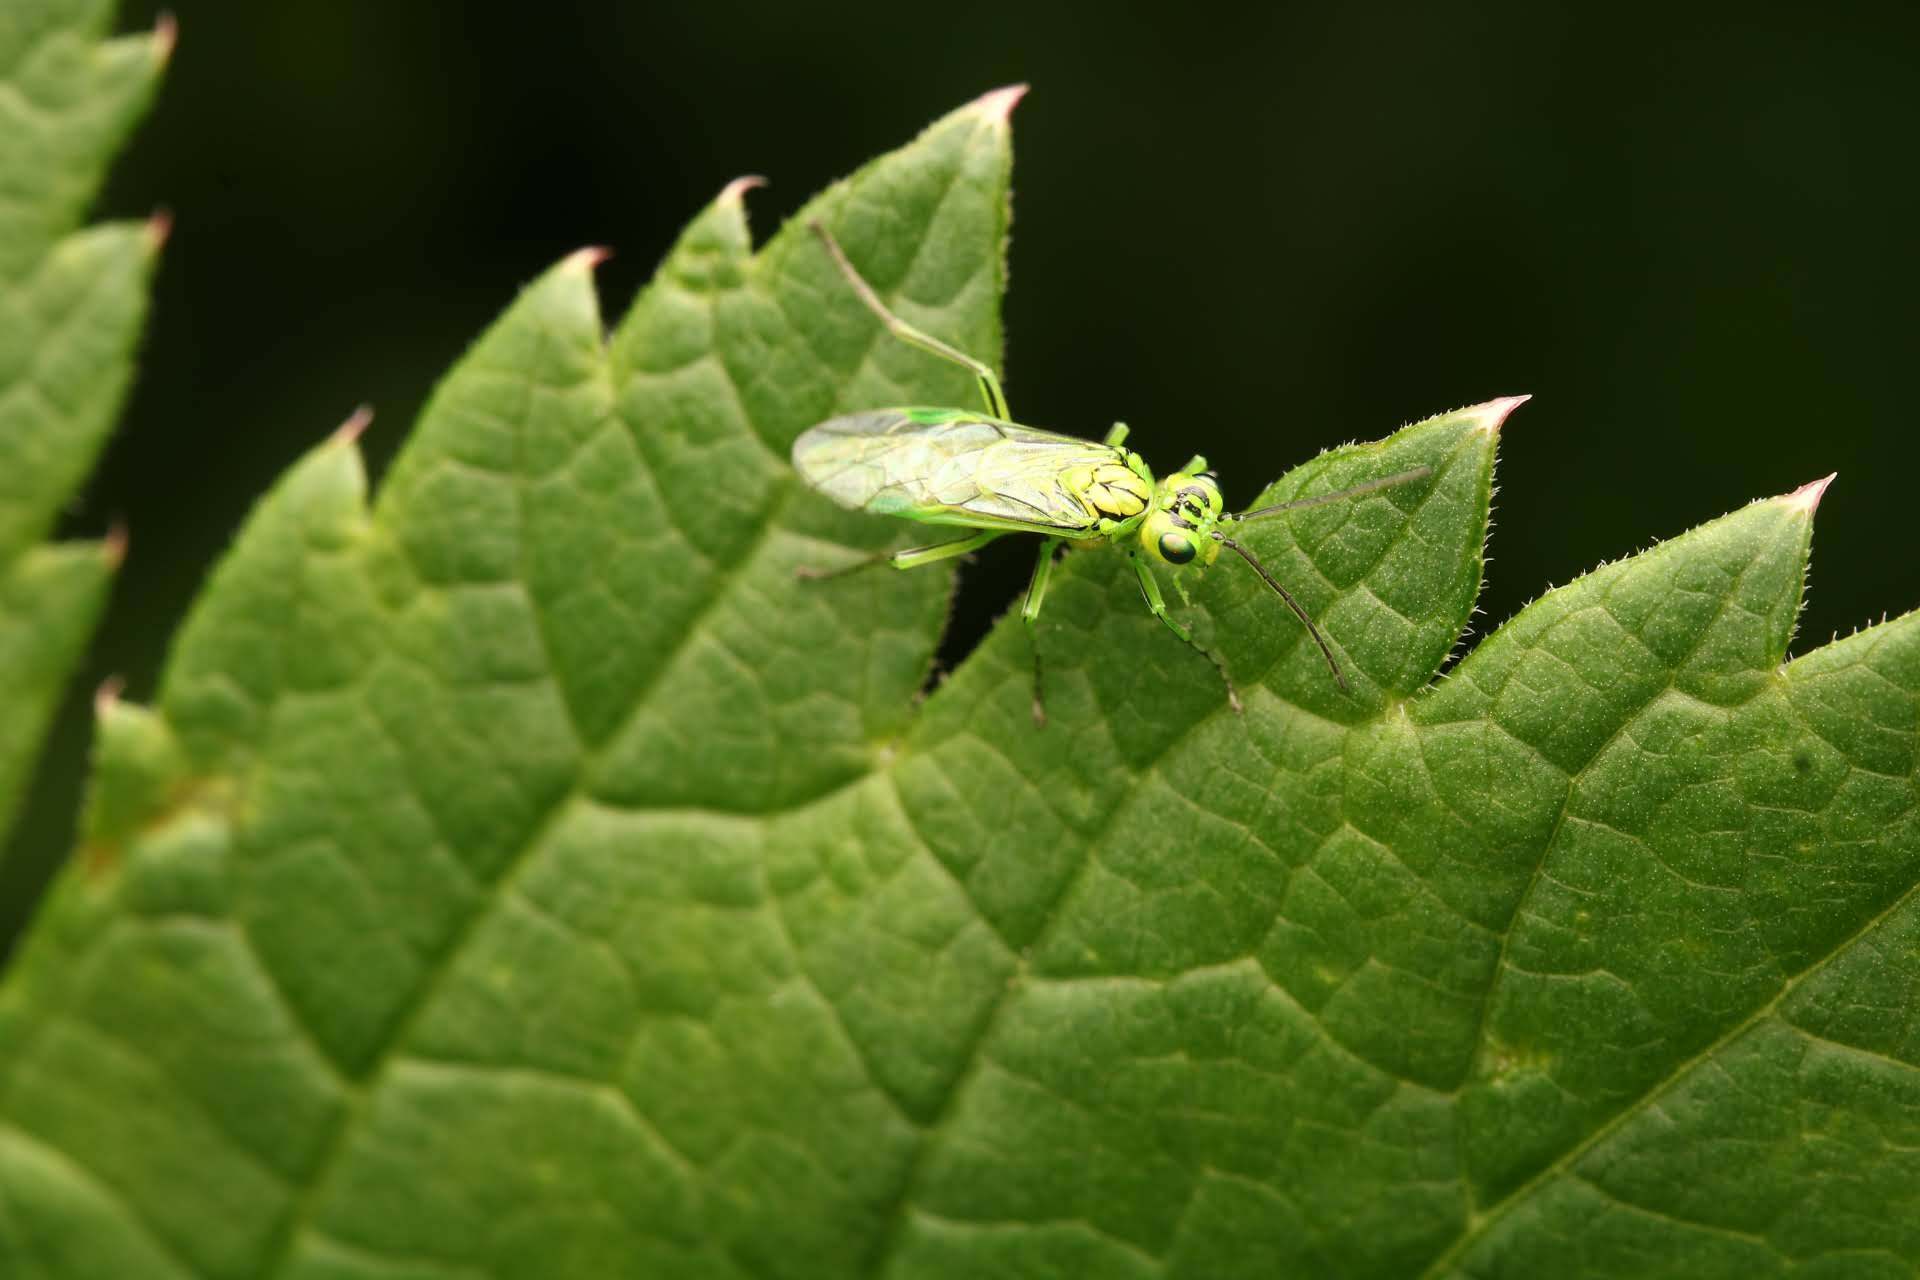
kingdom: Animalia
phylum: Arthropoda
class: Insecta
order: Hymenoptera
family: Tenthredinidae
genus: Rhogogaster
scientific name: Rhogogaster punctulata
